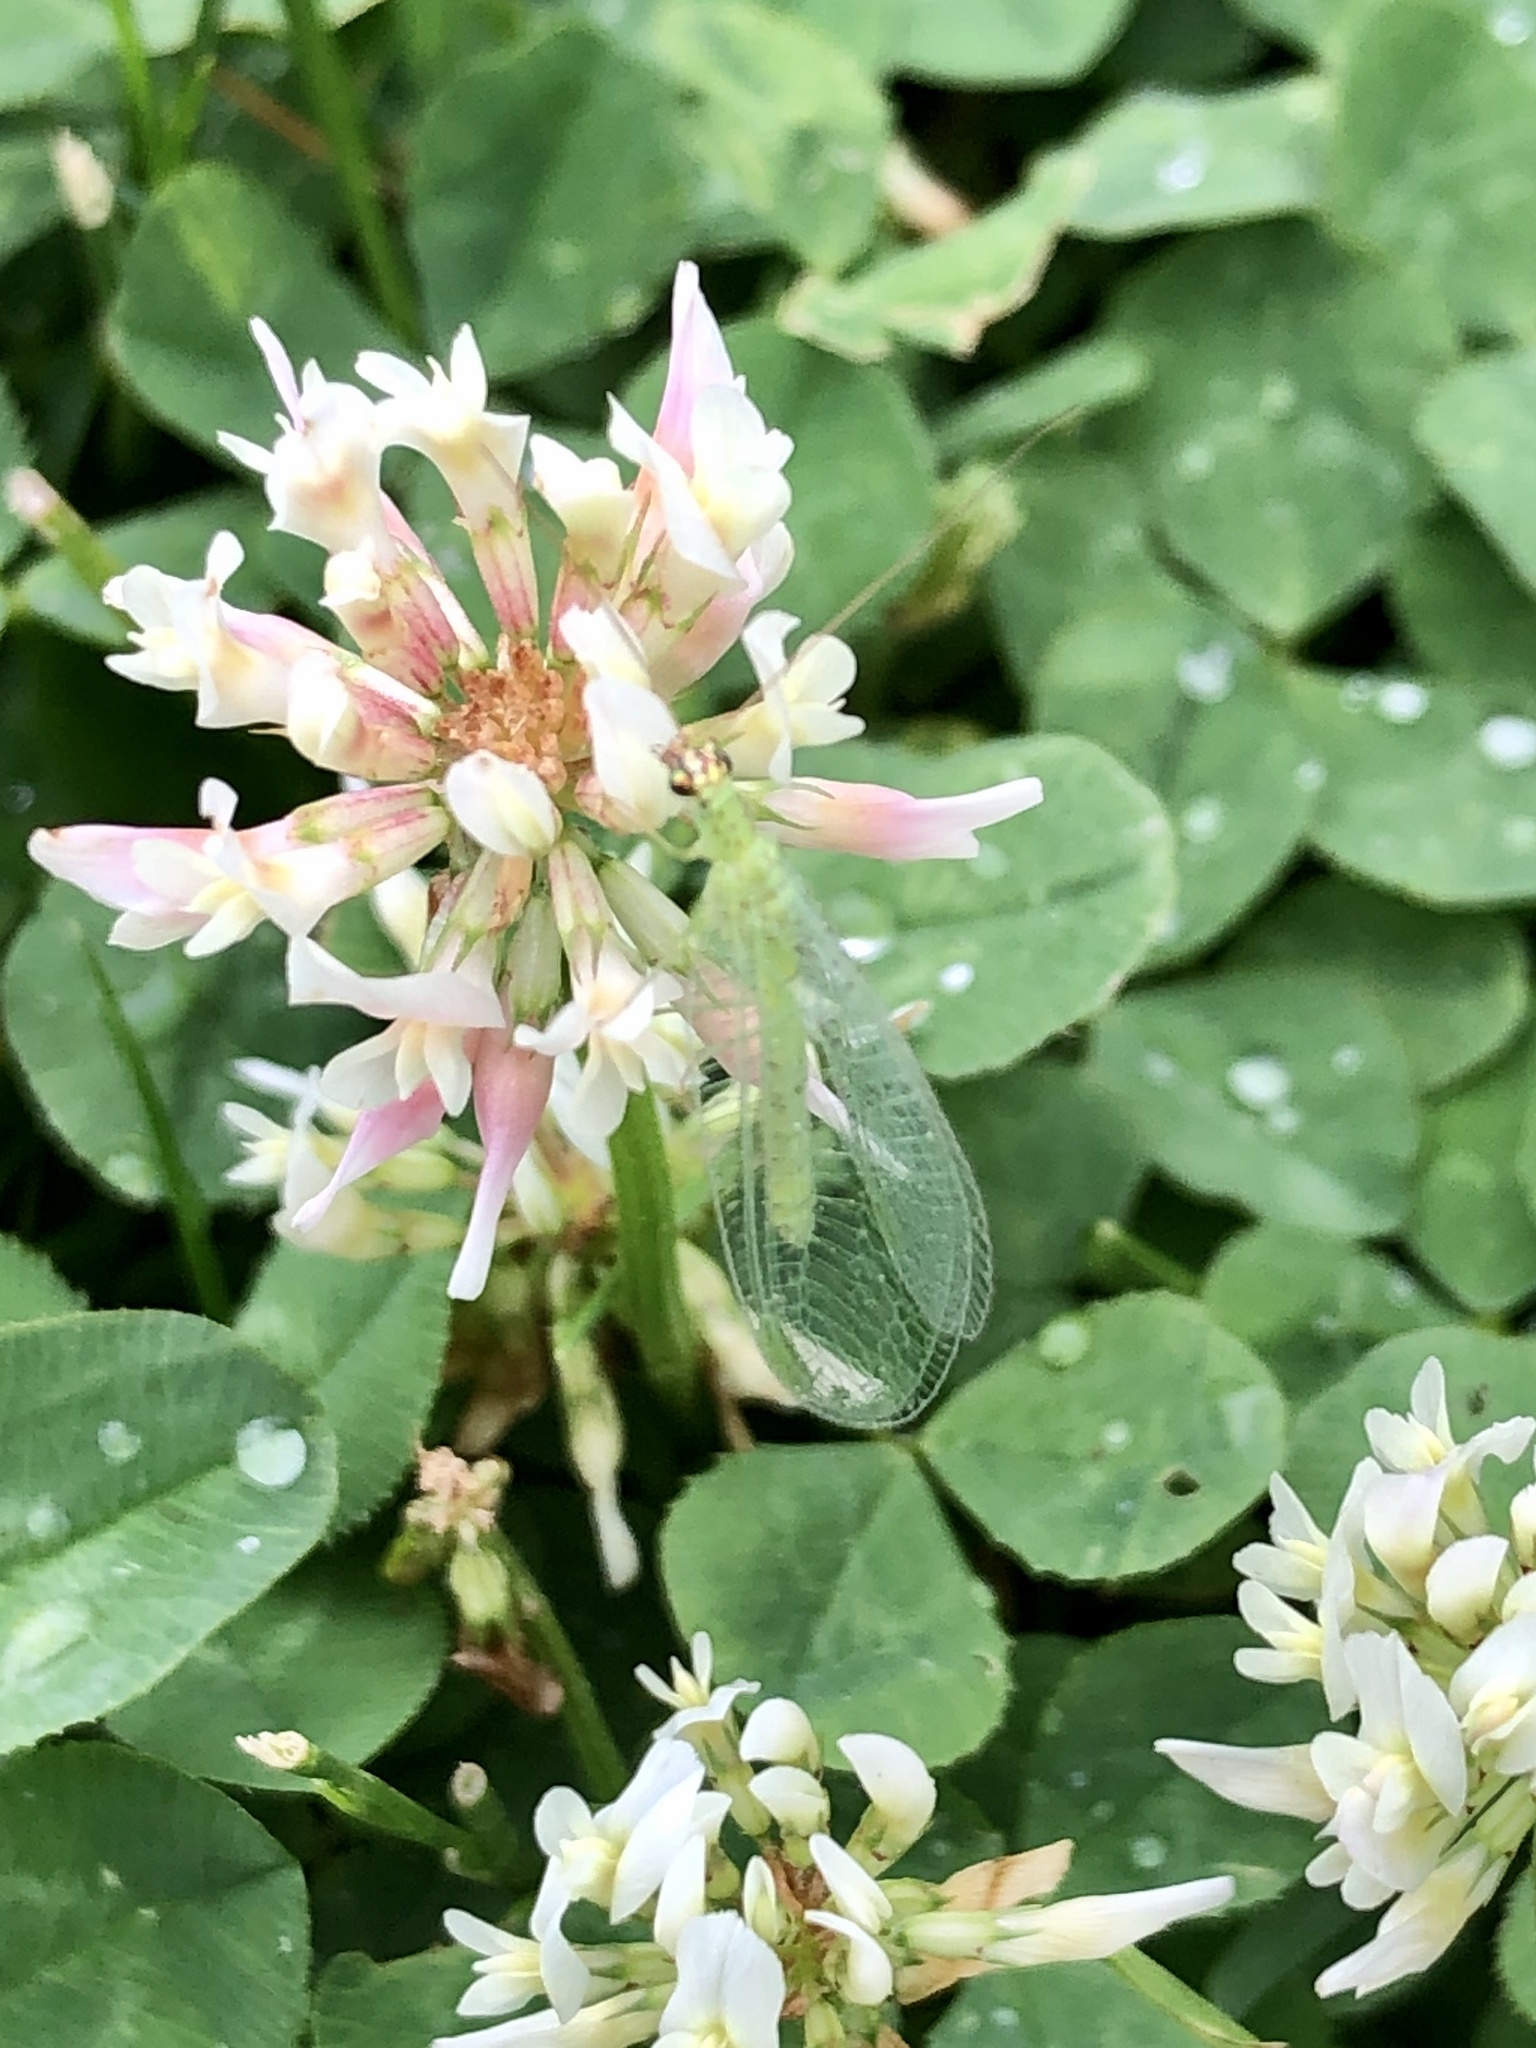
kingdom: Animalia
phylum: Arthropoda
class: Insecta
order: Neuroptera
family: Chrysopidae
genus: Chrysopa
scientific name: Chrysopa oculata
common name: Golden-eyed lacewing
